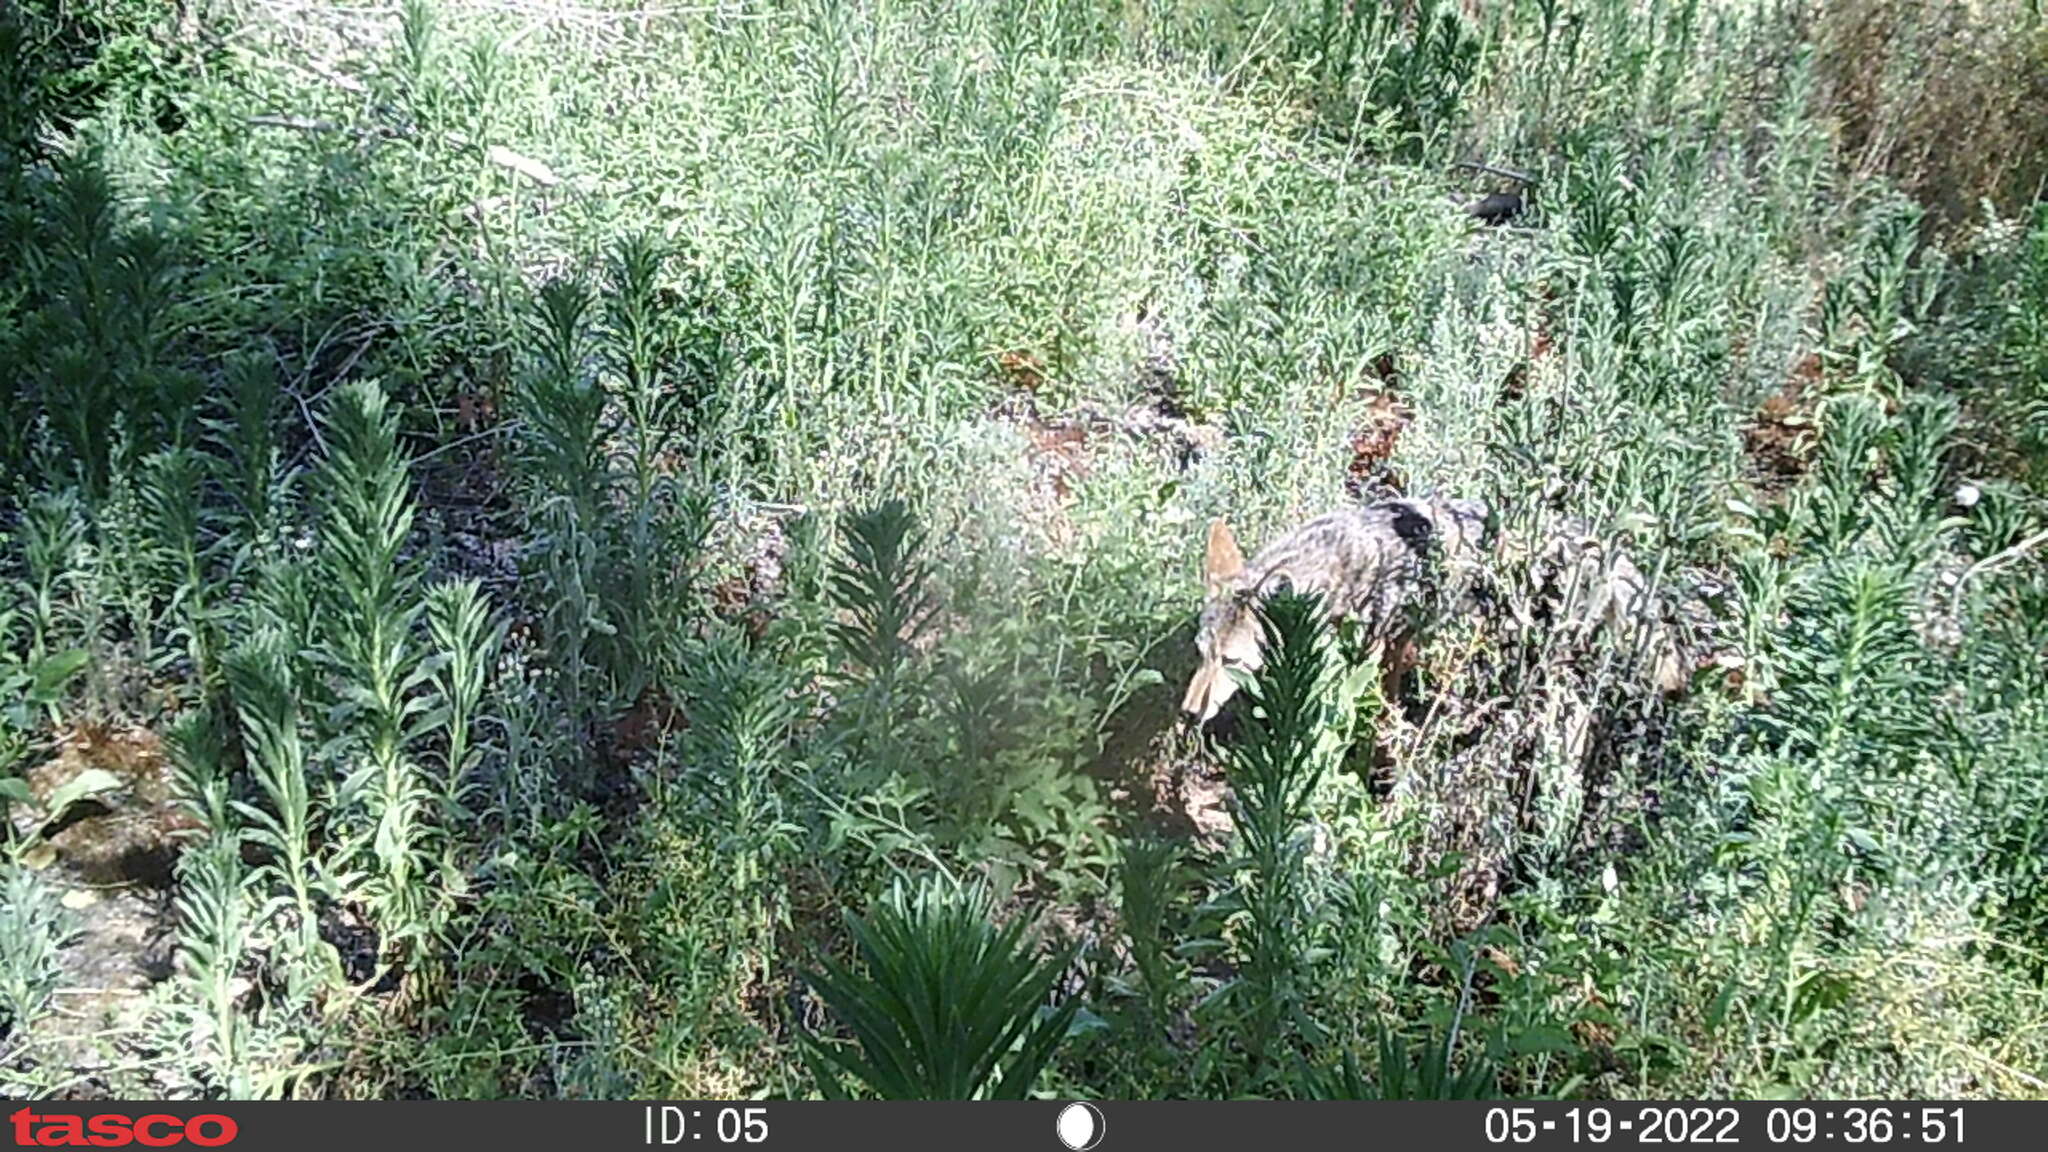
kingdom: Animalia
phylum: Chordata
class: Mammalia
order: Carnivora
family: Canidae
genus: Canis
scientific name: Canis latrans
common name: Coyote
